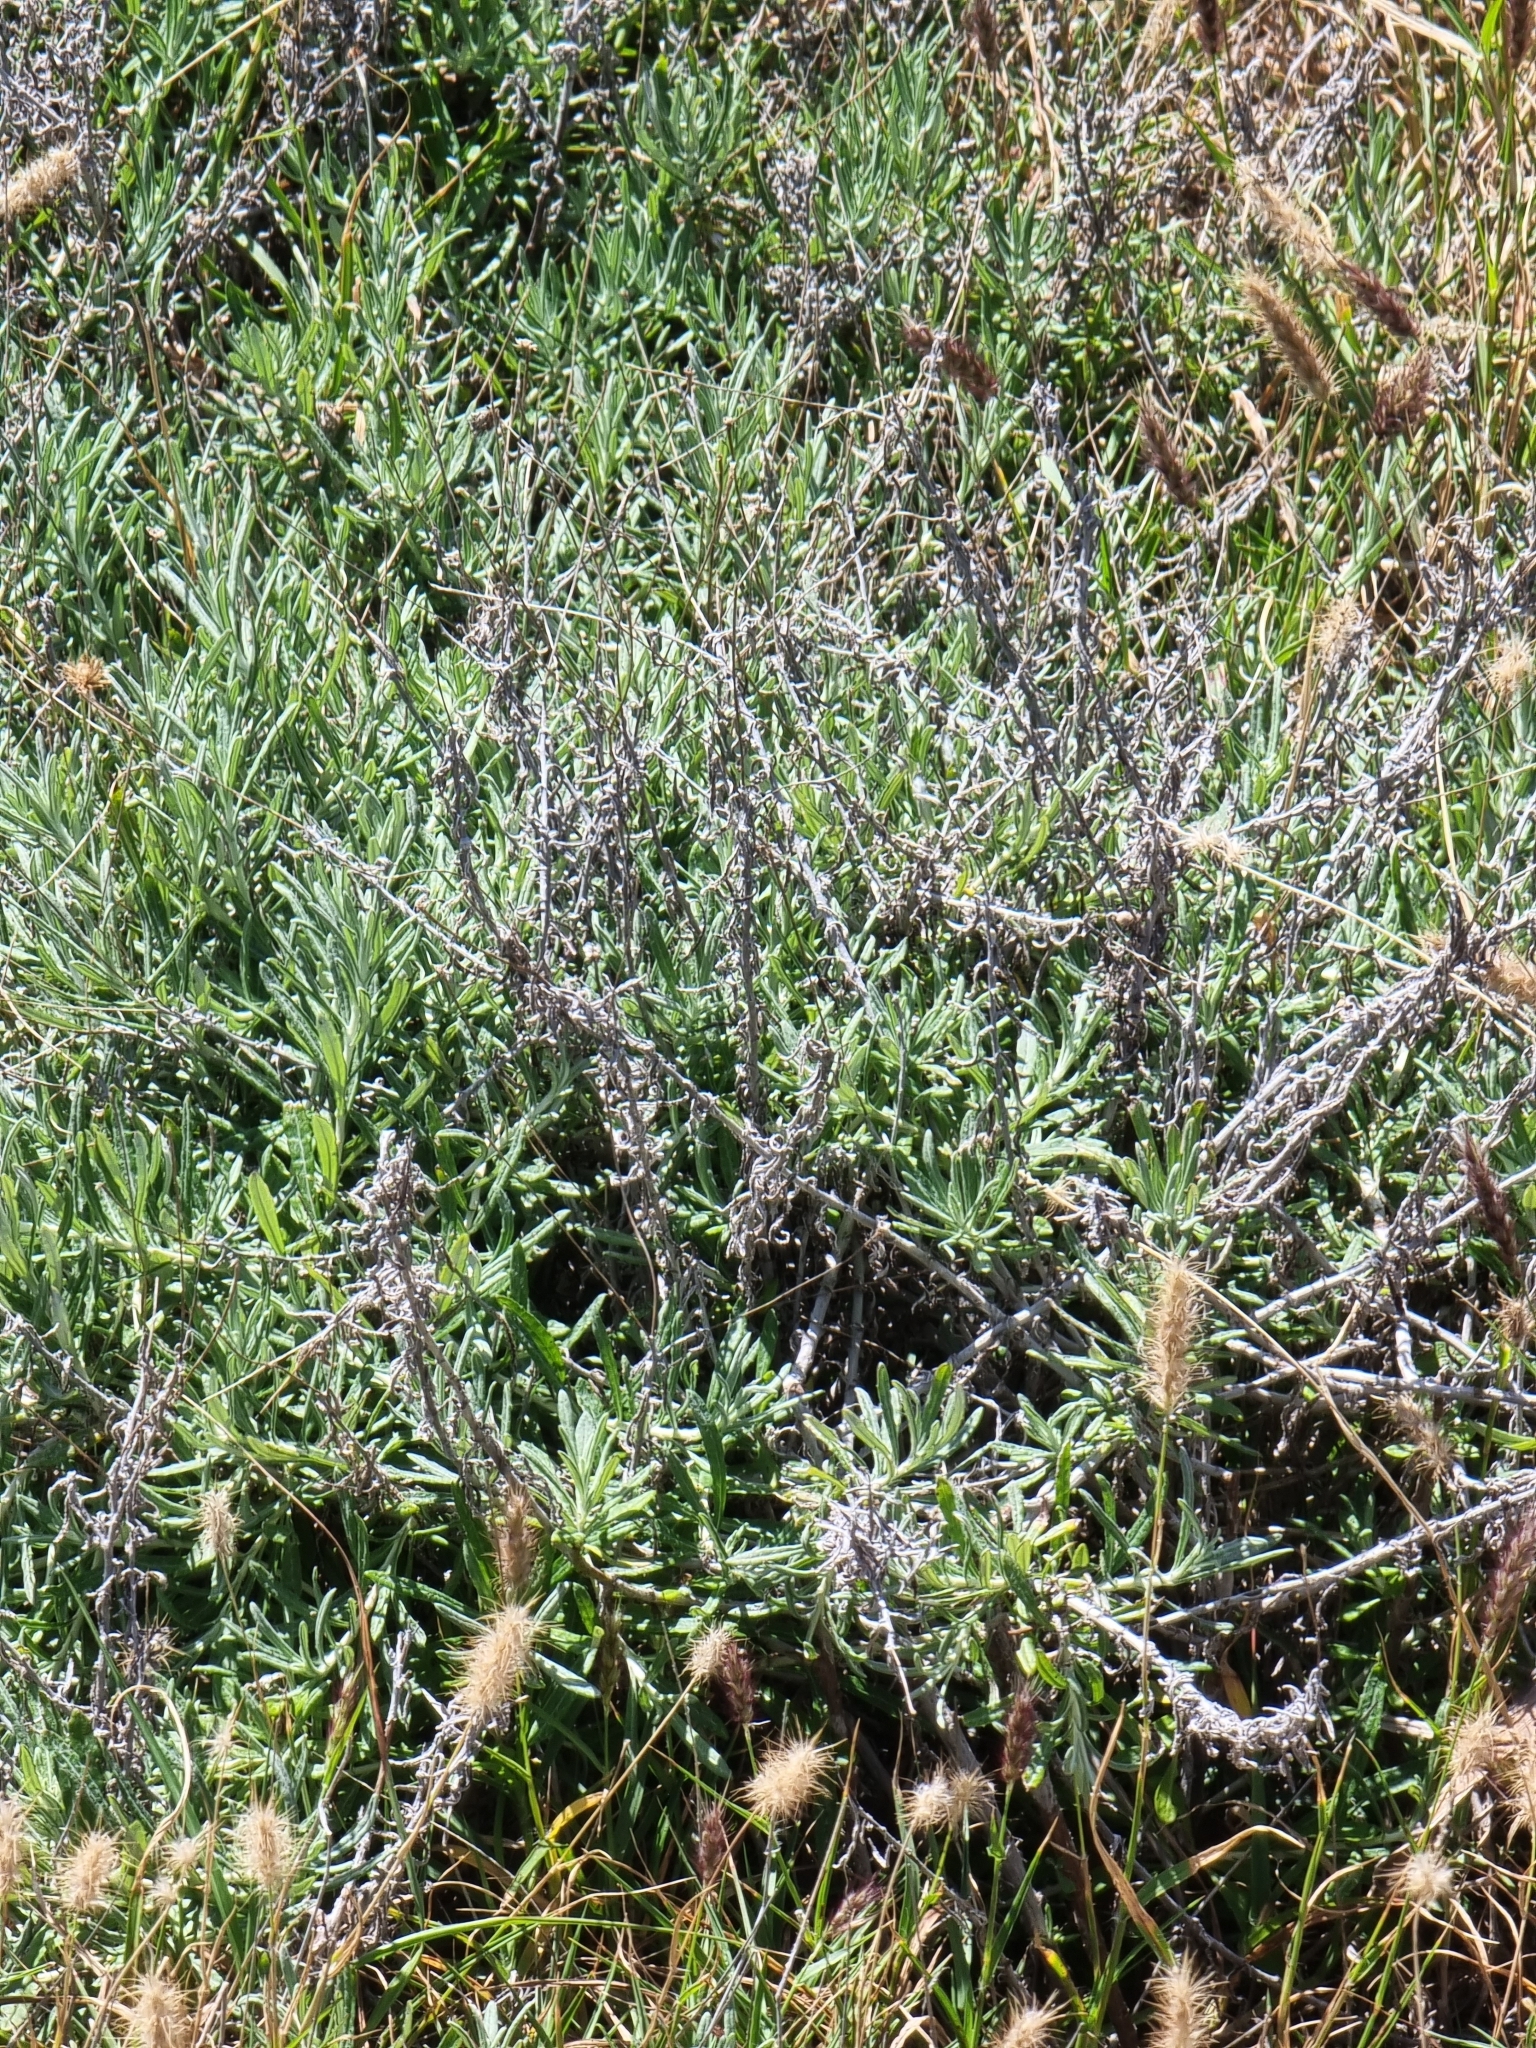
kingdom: Plantae
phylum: Tracheophyta
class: Magnoliopsida
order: Asterales
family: Asteraceae
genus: Phagnalon
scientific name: Phagnalon saxatile
